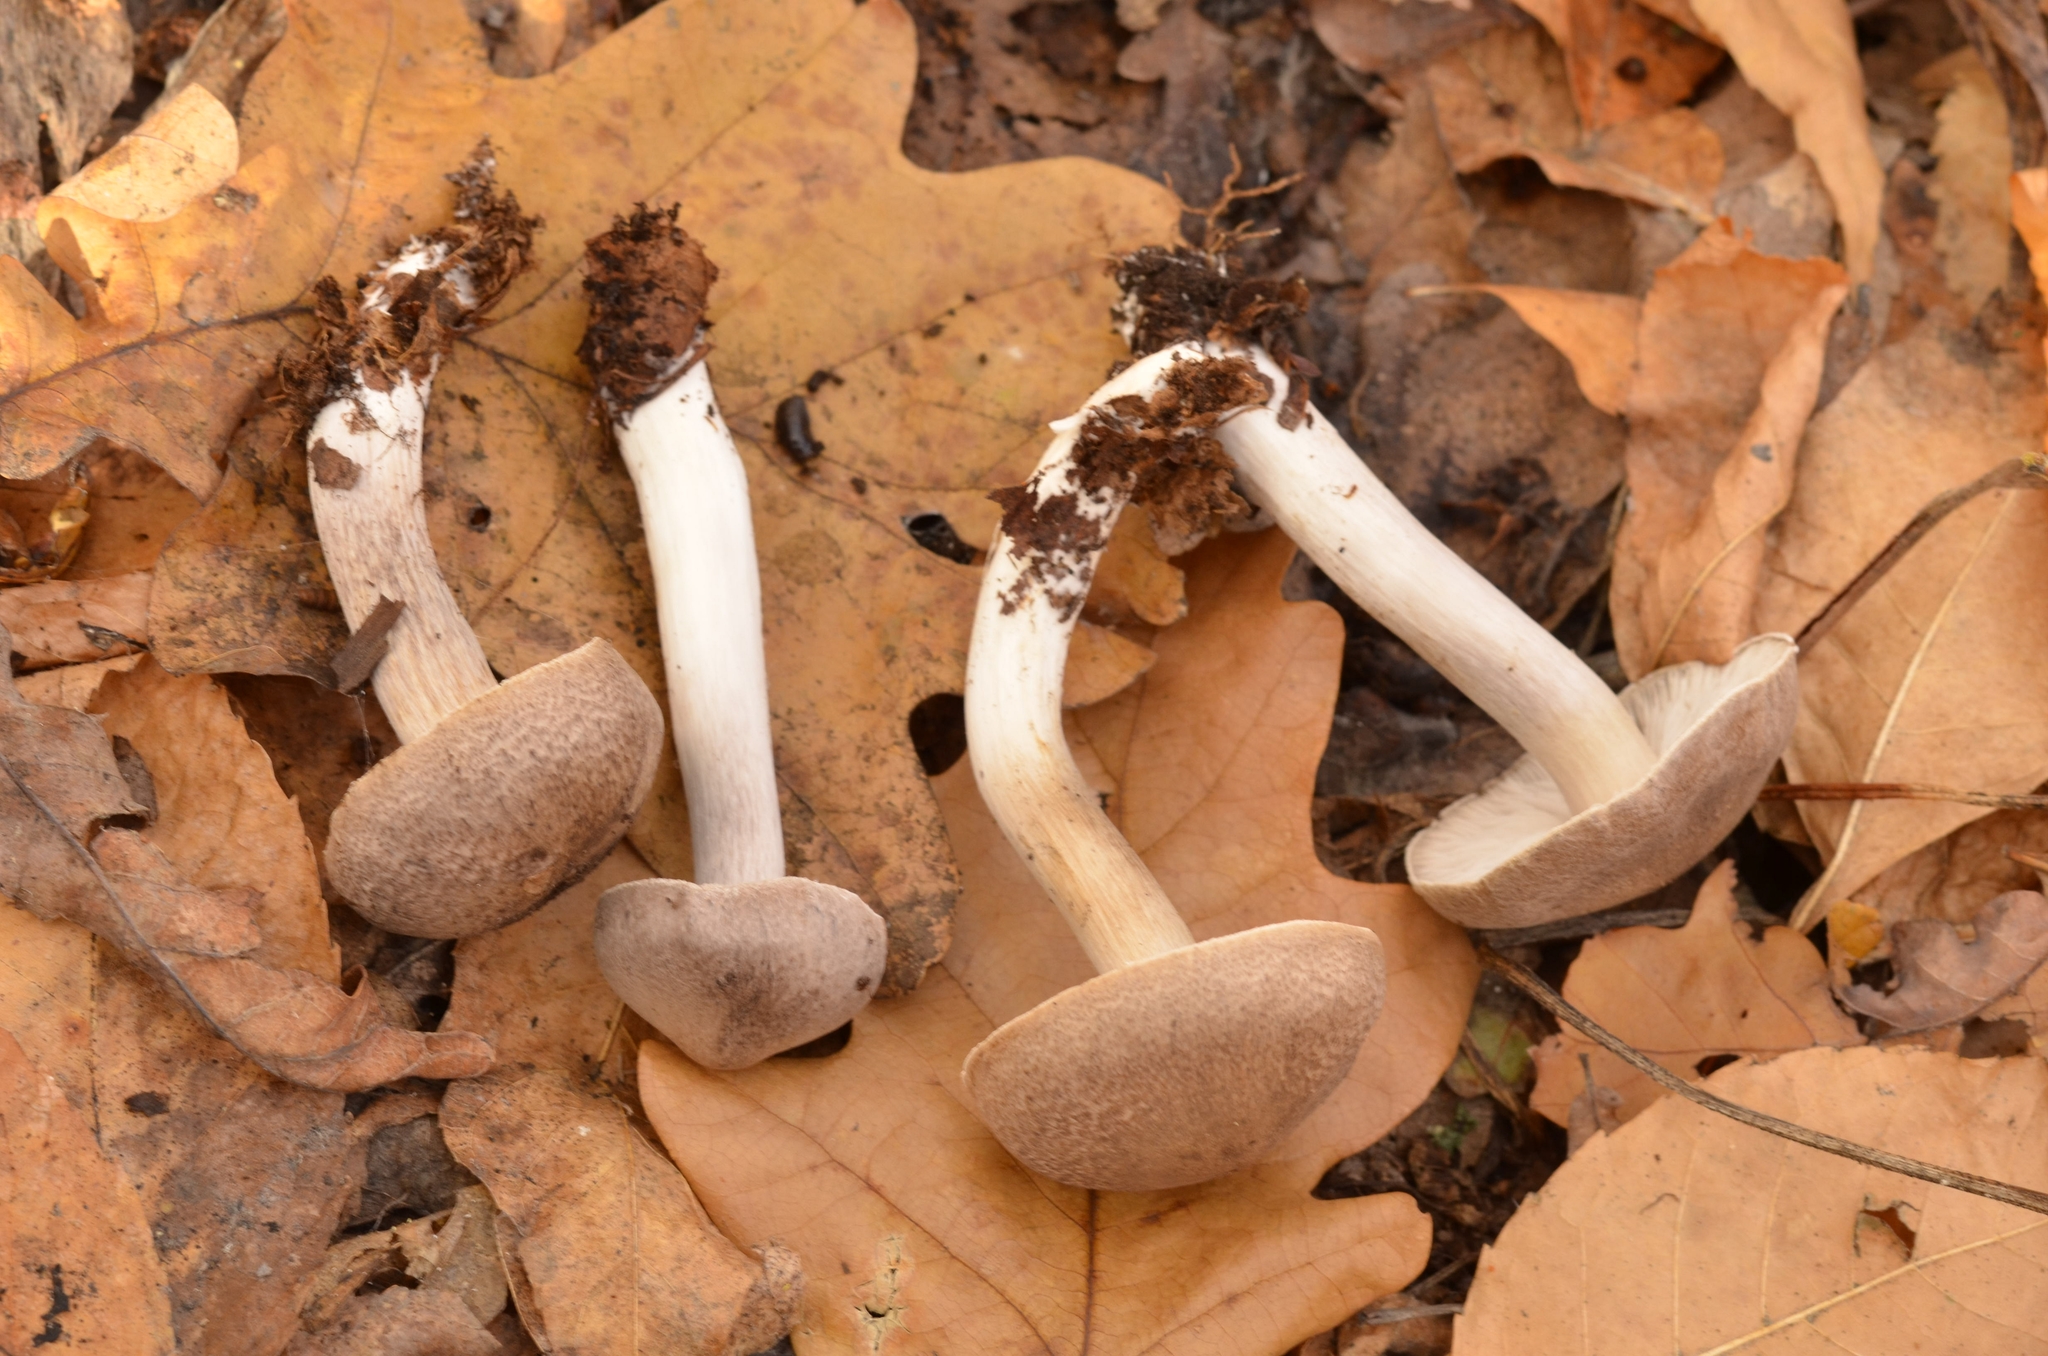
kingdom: Fungi
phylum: Basidiomycota
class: Agaricomycetes
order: Agaricales
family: Tricholomataceae
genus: Tricholoma
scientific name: Tricholoma scalpturatum
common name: Yellowing knight
